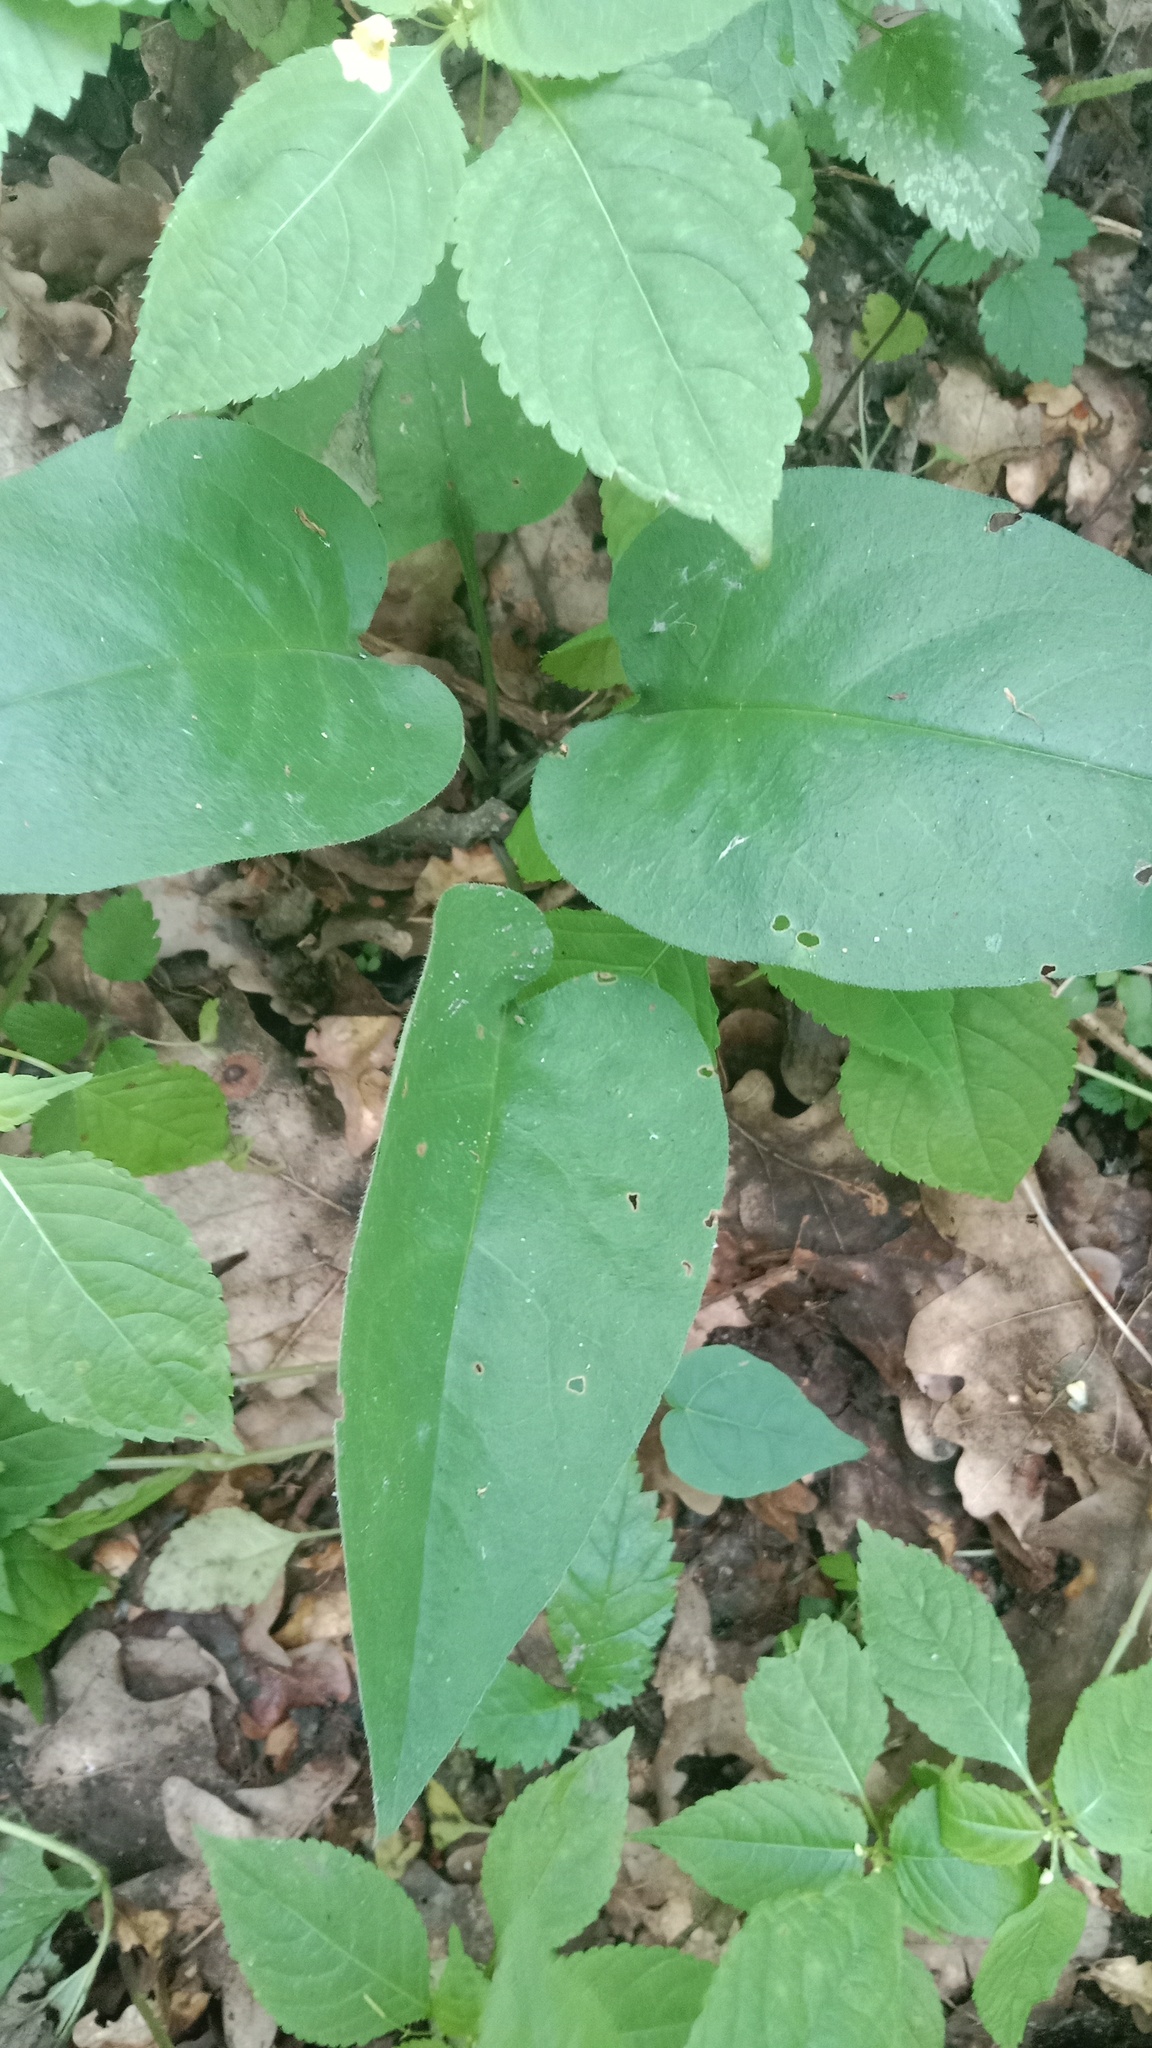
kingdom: Plantae
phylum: Tracheophyta
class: Magnoliopsida
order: Boraginales
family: Boraginaceae
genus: Pulmonaria
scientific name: Pulmonaria obscura
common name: Suffolk lungwort
